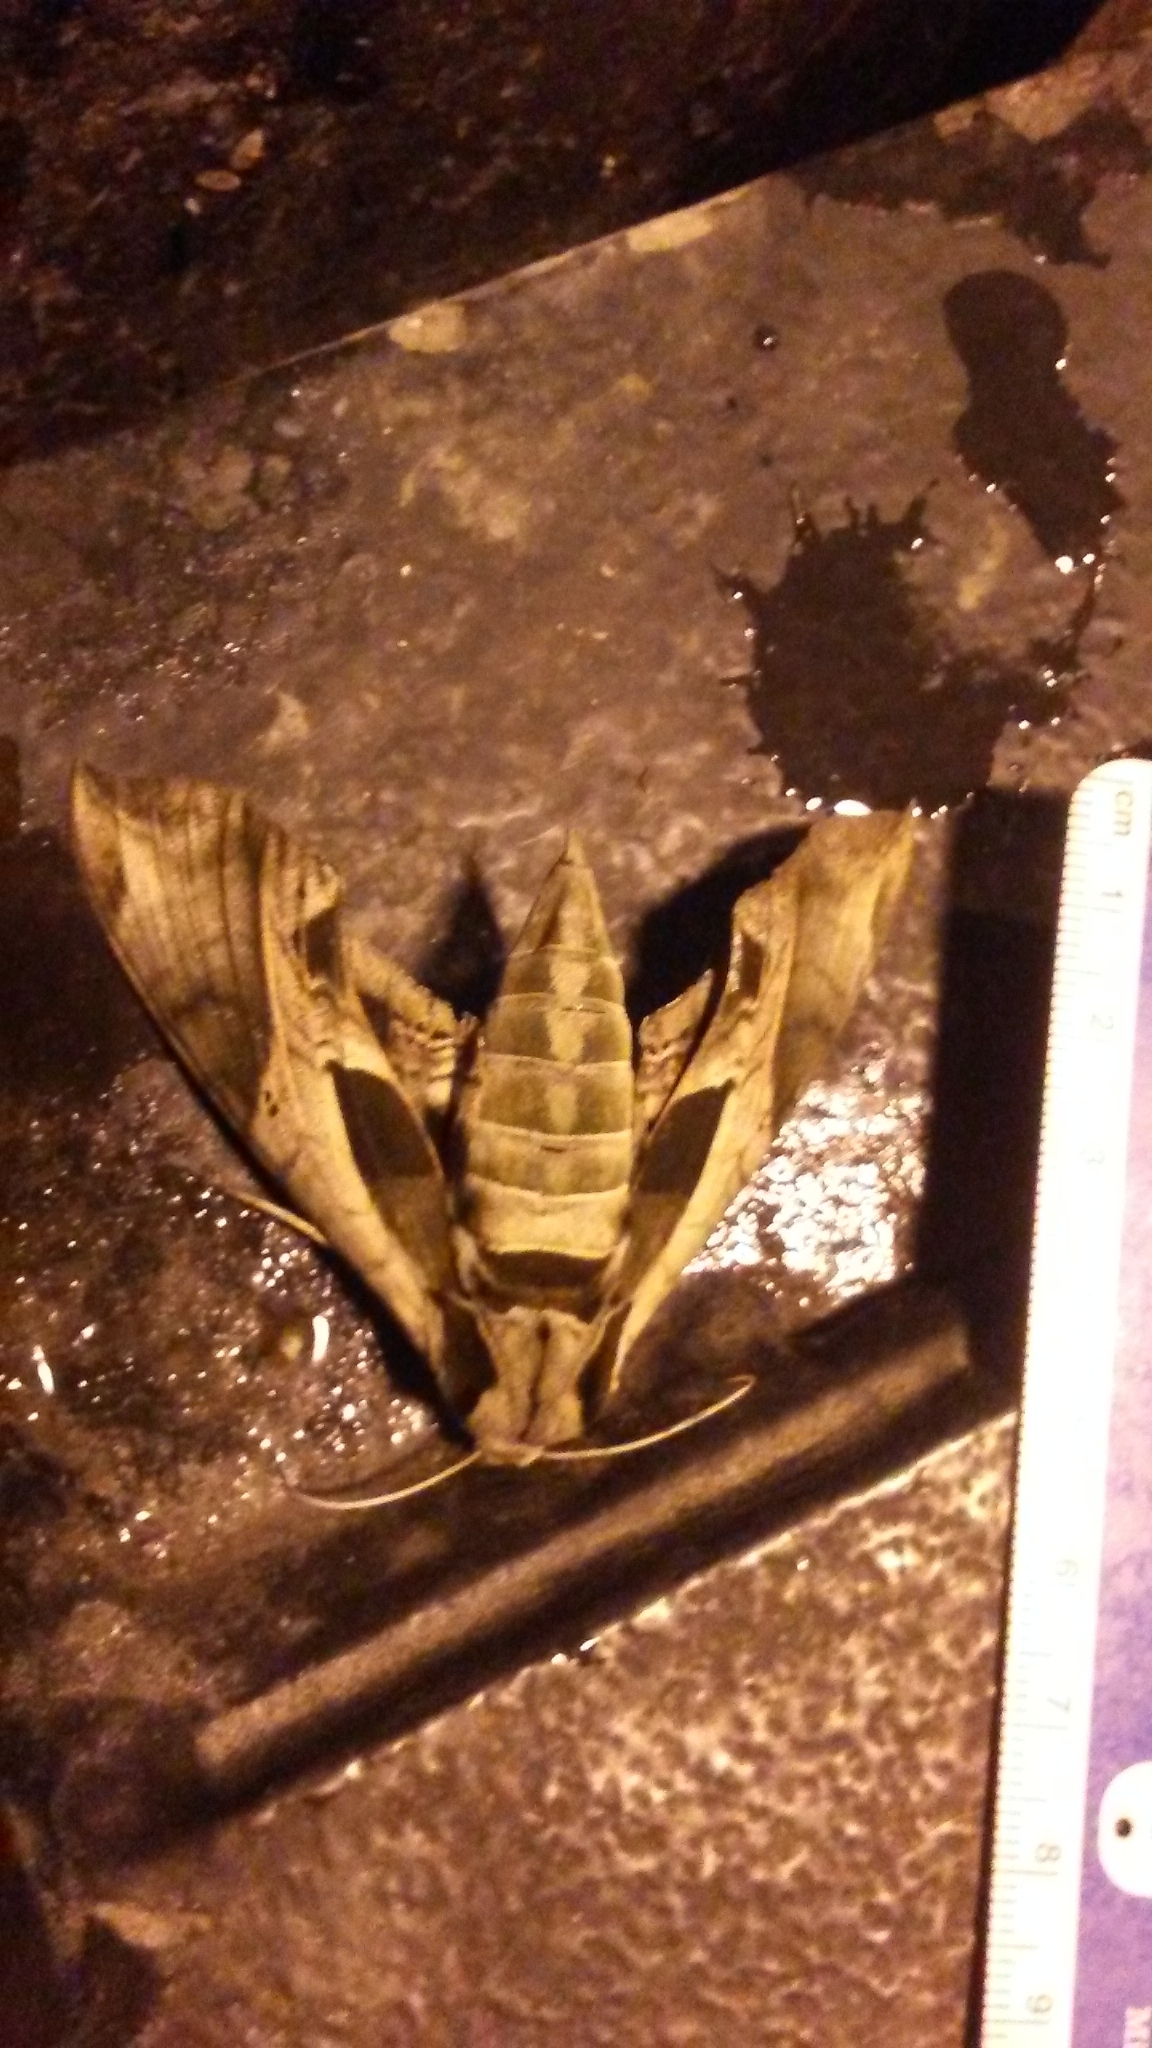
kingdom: Animalia
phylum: Arthropoda
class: Insecta
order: Lepidoptera
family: Sphingidae
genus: Eumorpha
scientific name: Eumorpha pandorus
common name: Pandora sphinx
